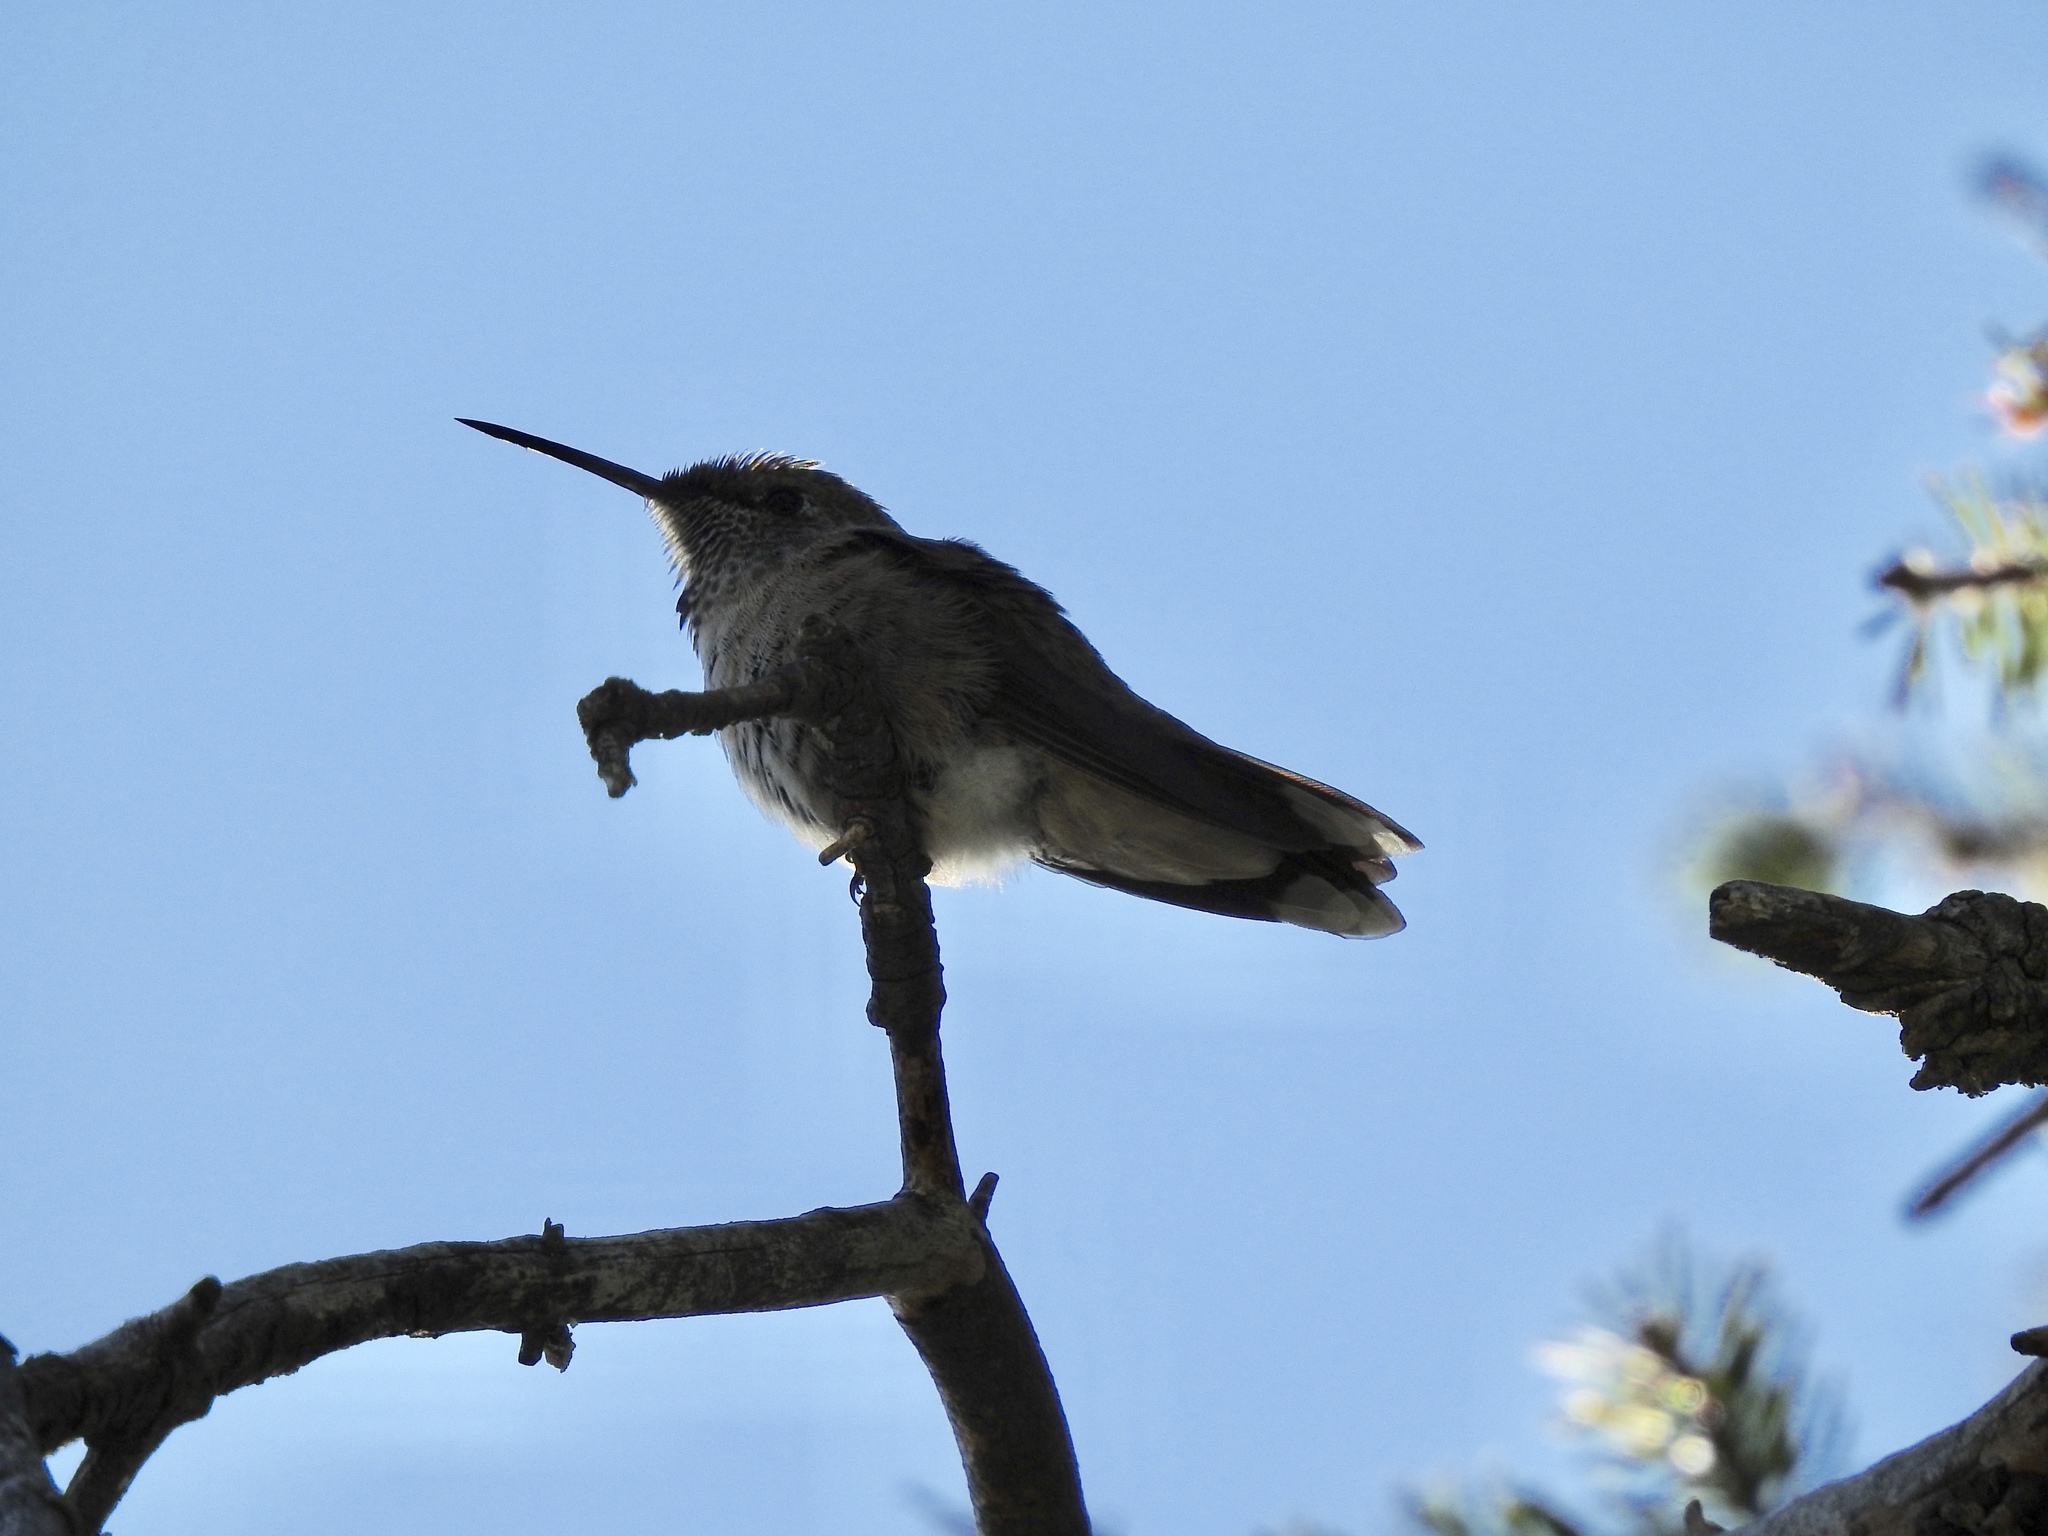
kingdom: Animalia
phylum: Chordata
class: Aves
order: Apodiformes
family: Trochilidae
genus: Selasphorus
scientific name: Selasphorus platycercus
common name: Broad-tailed hummingbird
